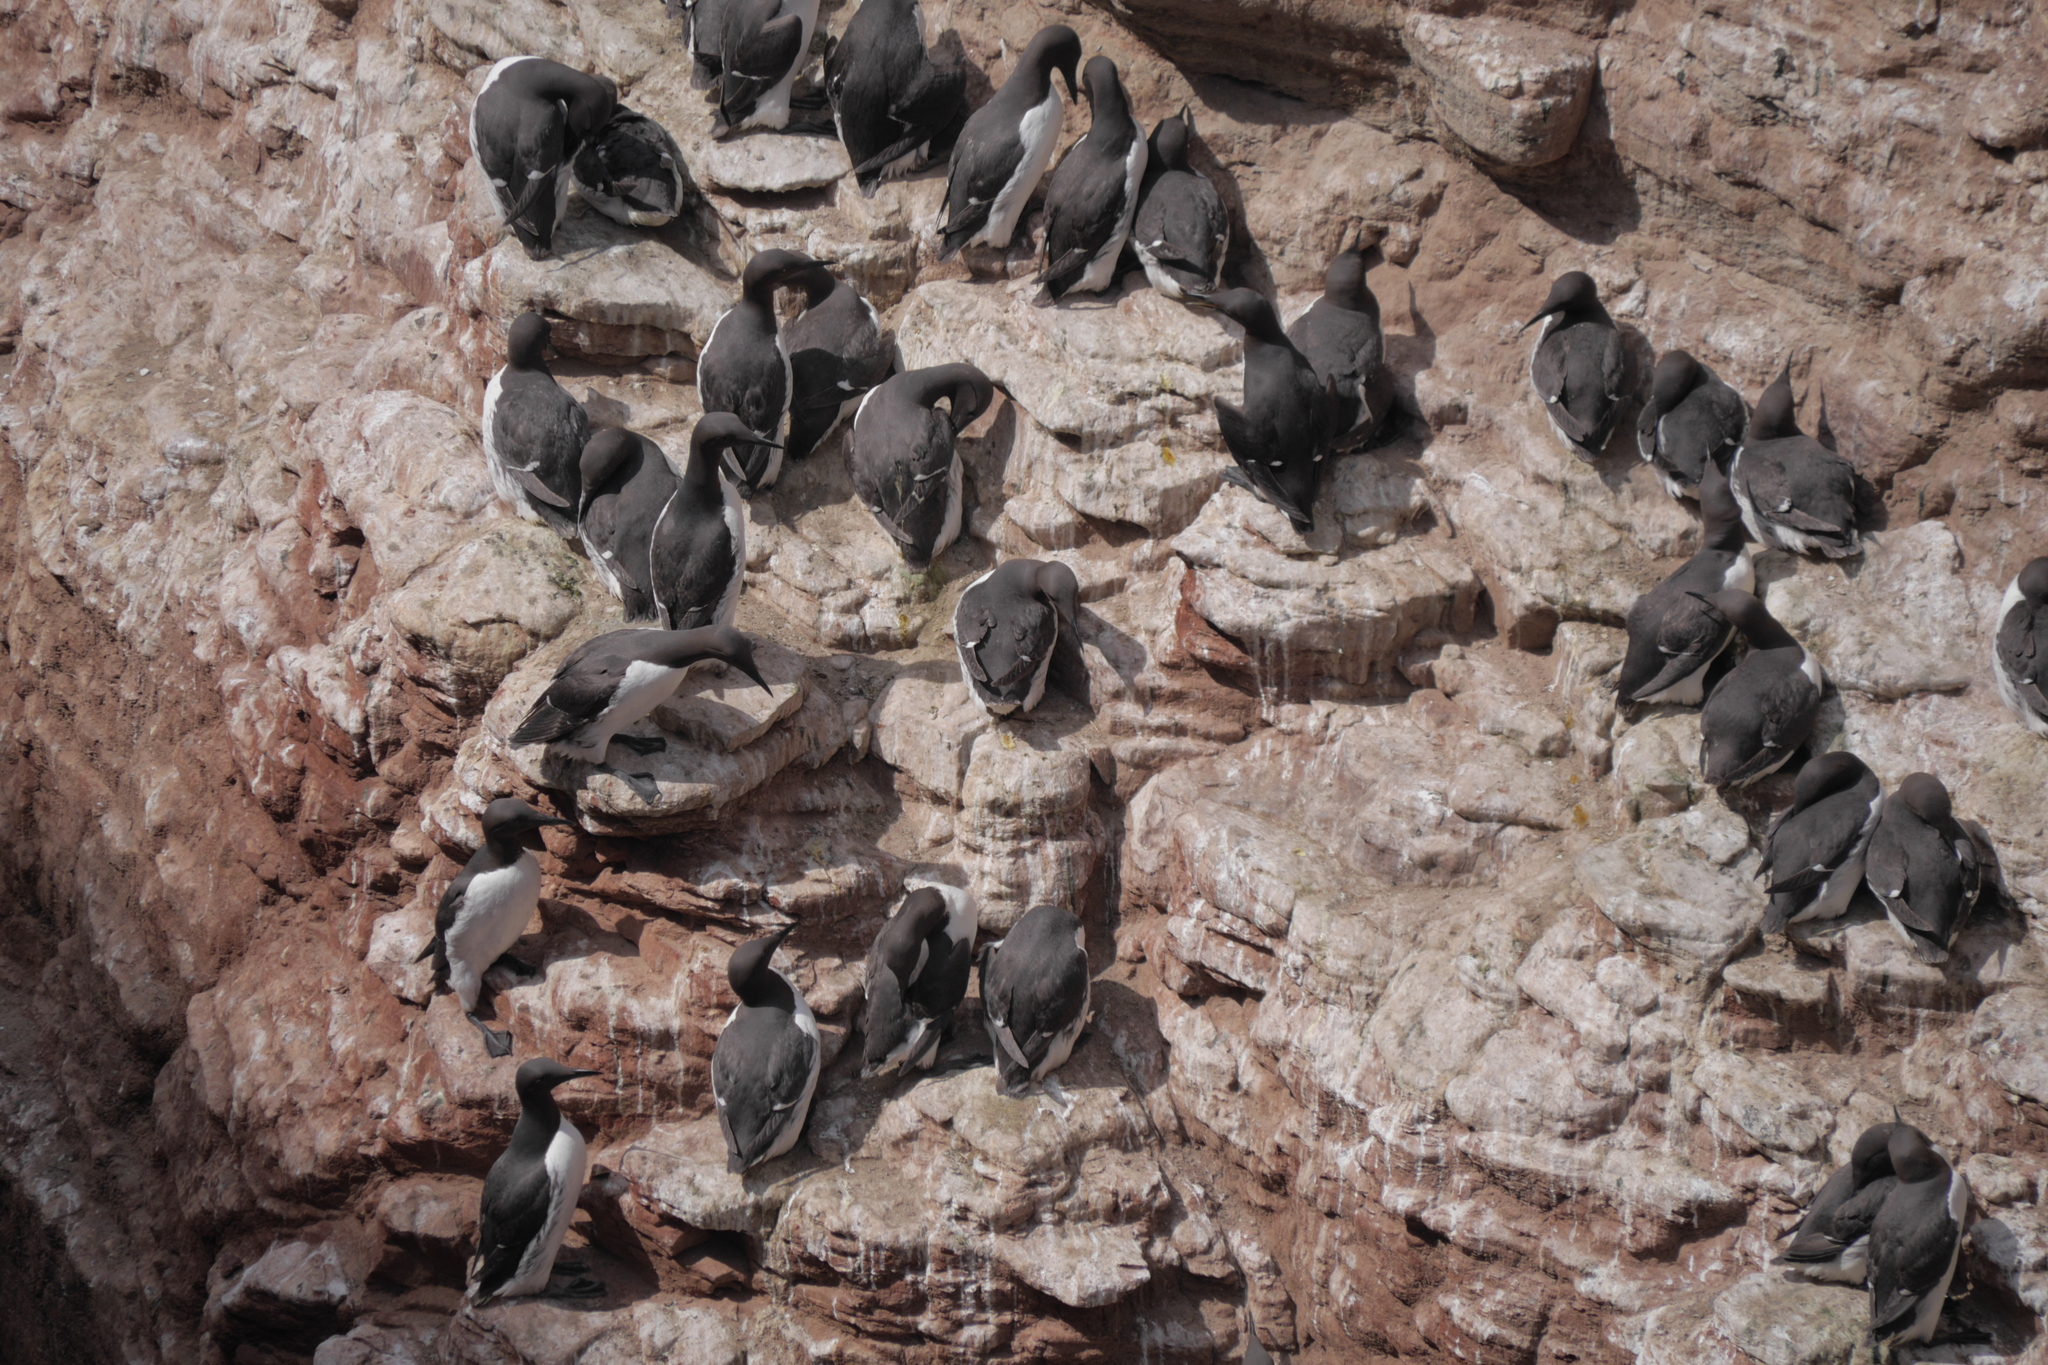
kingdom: Animalia
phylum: Chordata
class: Aves
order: Charadriiformes
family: Alcidae
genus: Uria
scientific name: Uria aalge
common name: Common murre
